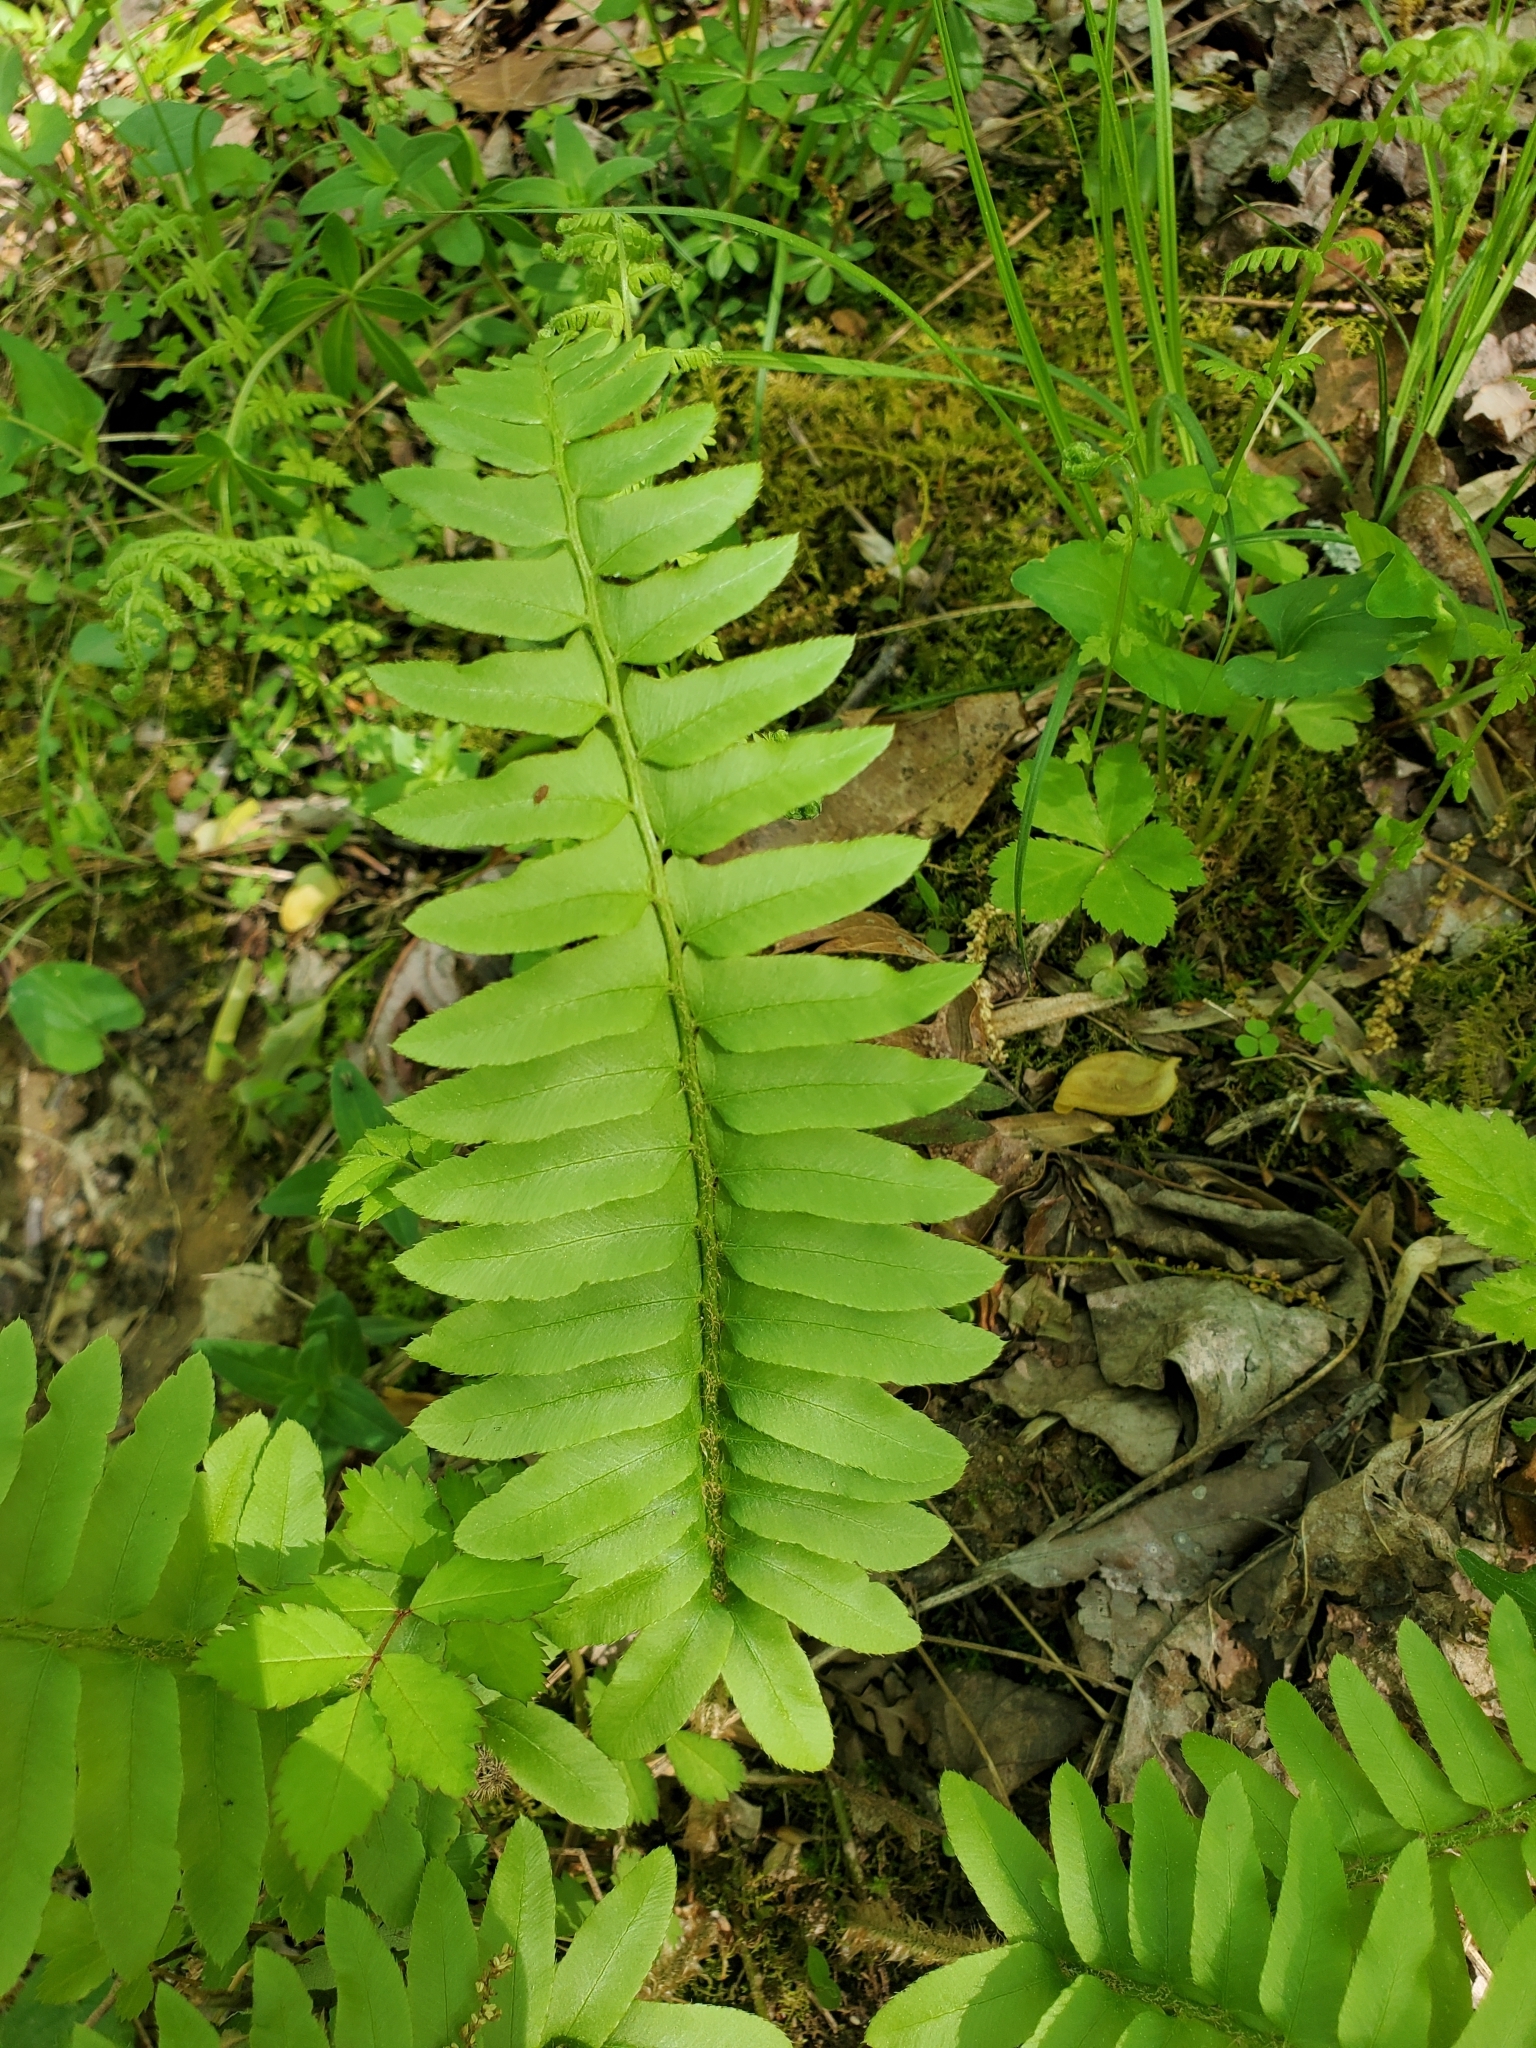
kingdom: Plantae
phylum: Tracheophyta
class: Polypodiopsida
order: Polypodiales
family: Dryopteridaceae
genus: Polystichum
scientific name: Polystichum acrostichoides
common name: Christmas fern
